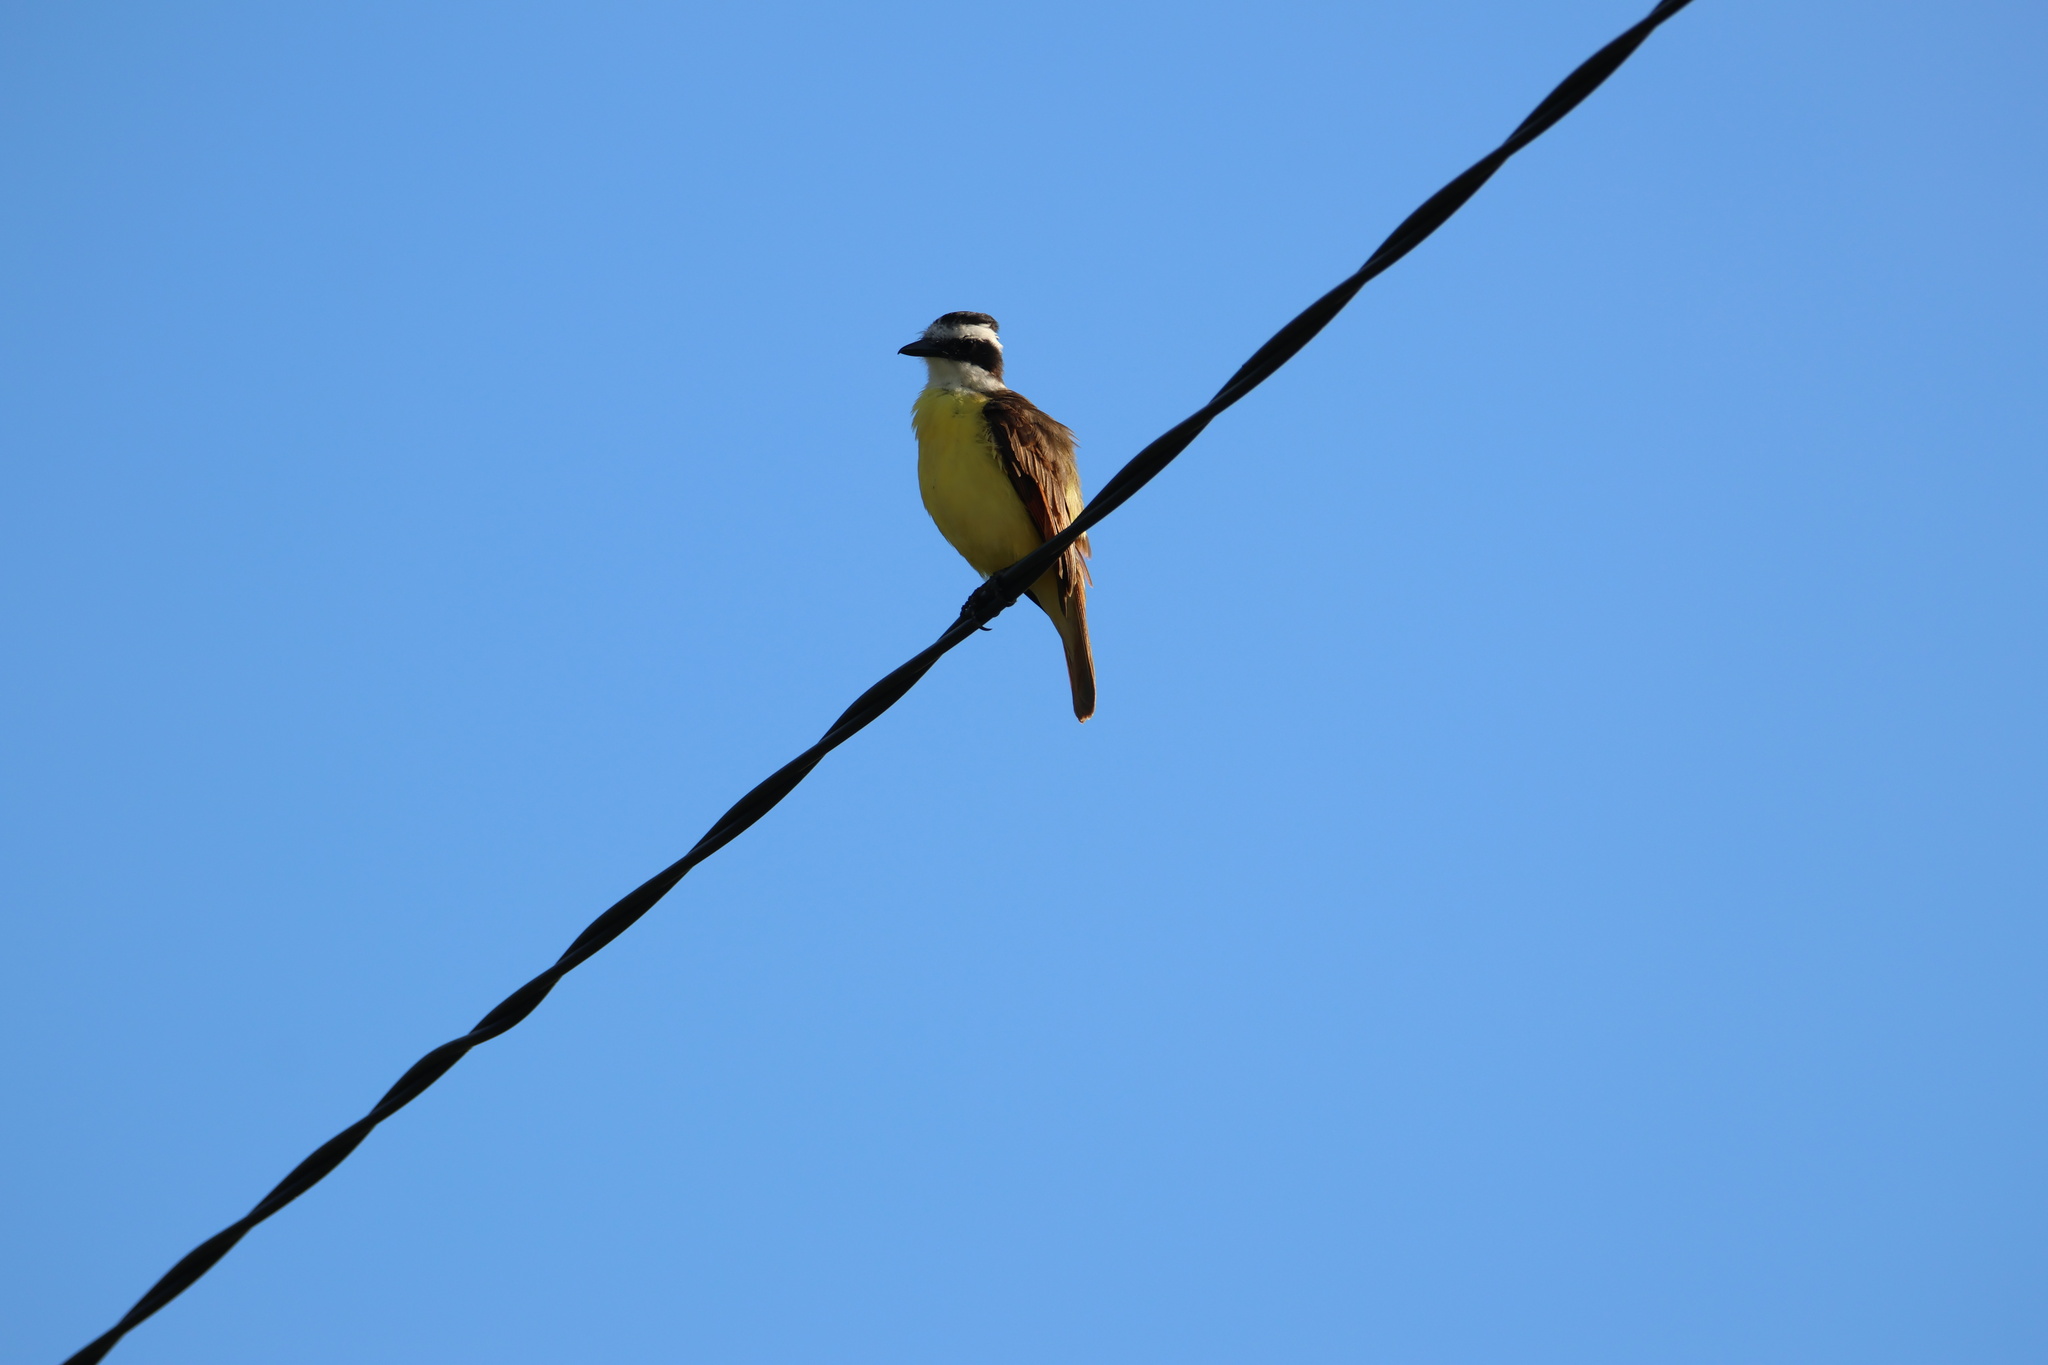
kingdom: Animalia
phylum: Chordata
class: Aves
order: Passeriformes
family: Tyrannidae
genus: Pitangus
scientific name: Pitangus sulphuratus
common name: Great kiskadee
